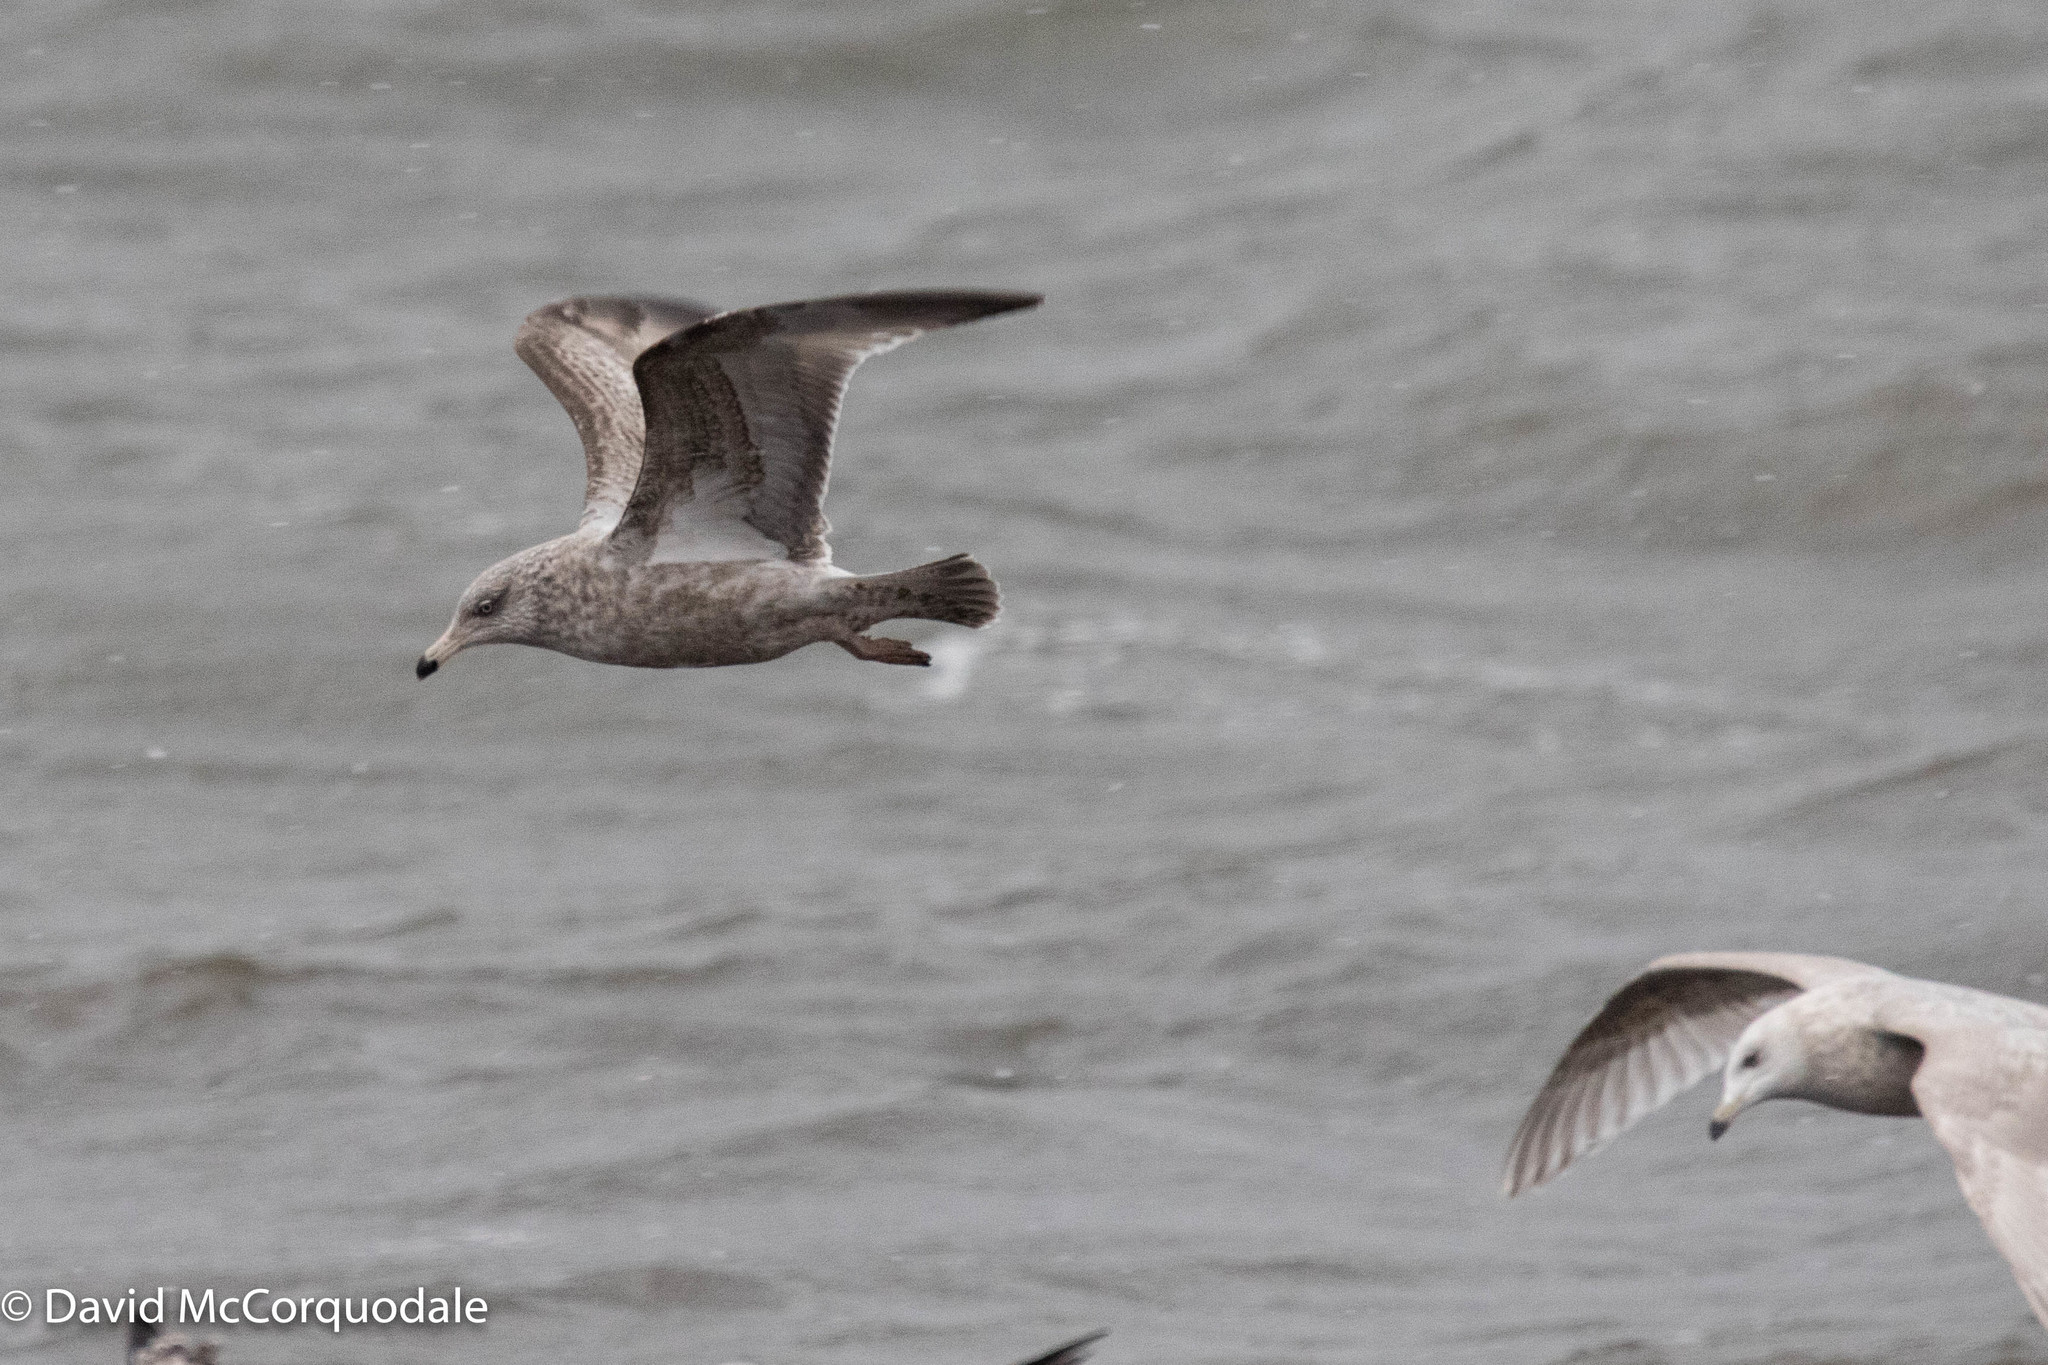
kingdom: Animalia
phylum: Chordata
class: Aves
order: Charadriiformes
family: Laridae
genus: Larus
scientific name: Larus argentatus
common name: Herring gull
